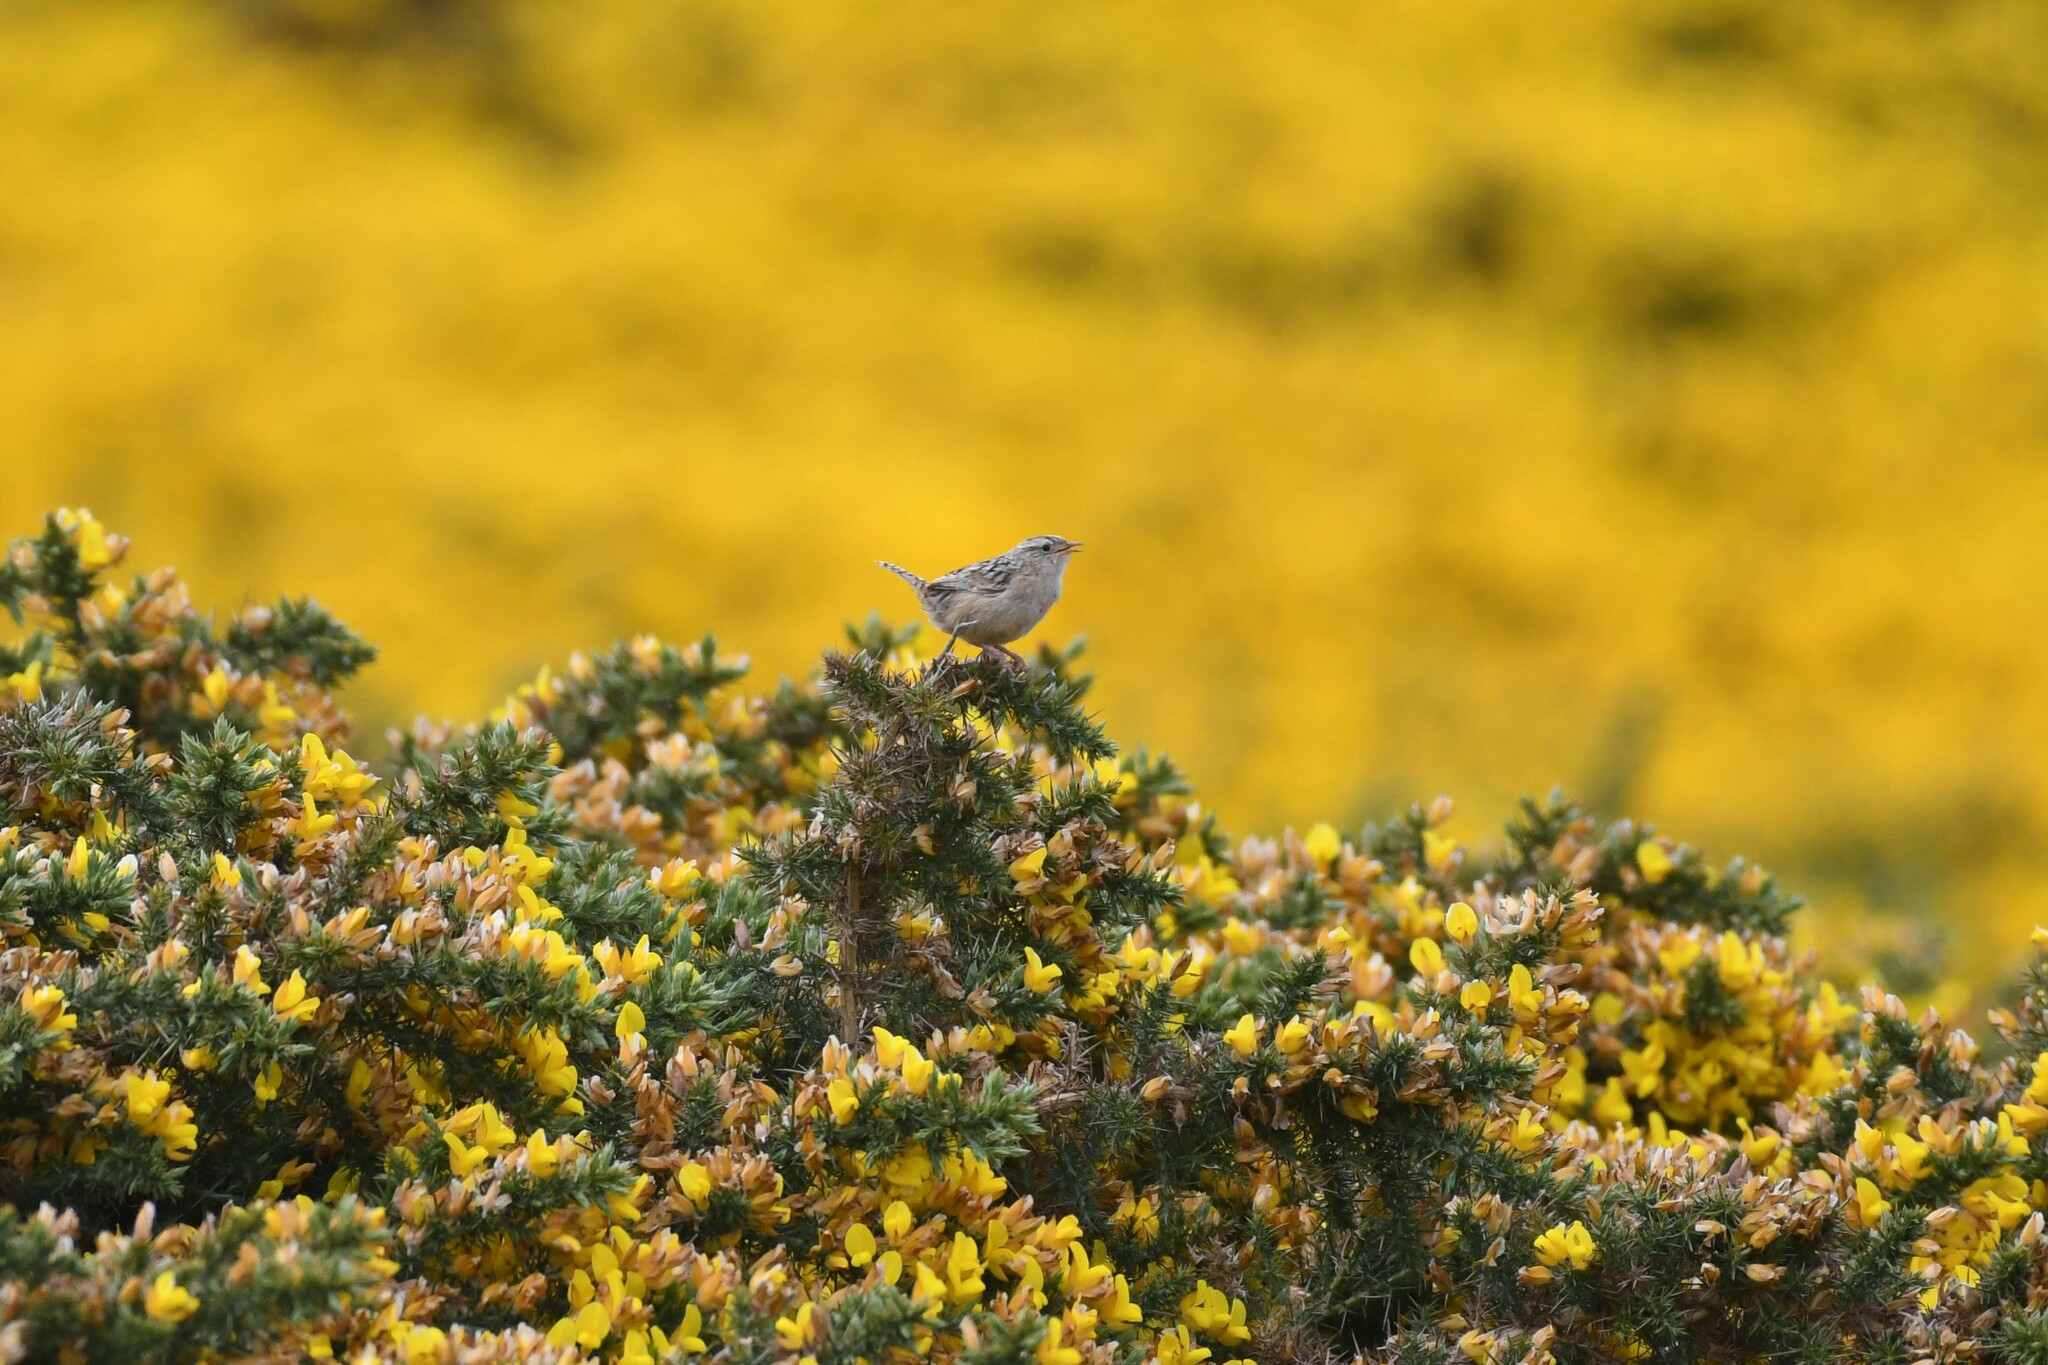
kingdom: Animalia
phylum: Chordata
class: Aves
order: Passeriformes
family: Troglodytidae
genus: Cistothorus
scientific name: Cistothorus platensis
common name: Sedge wren
